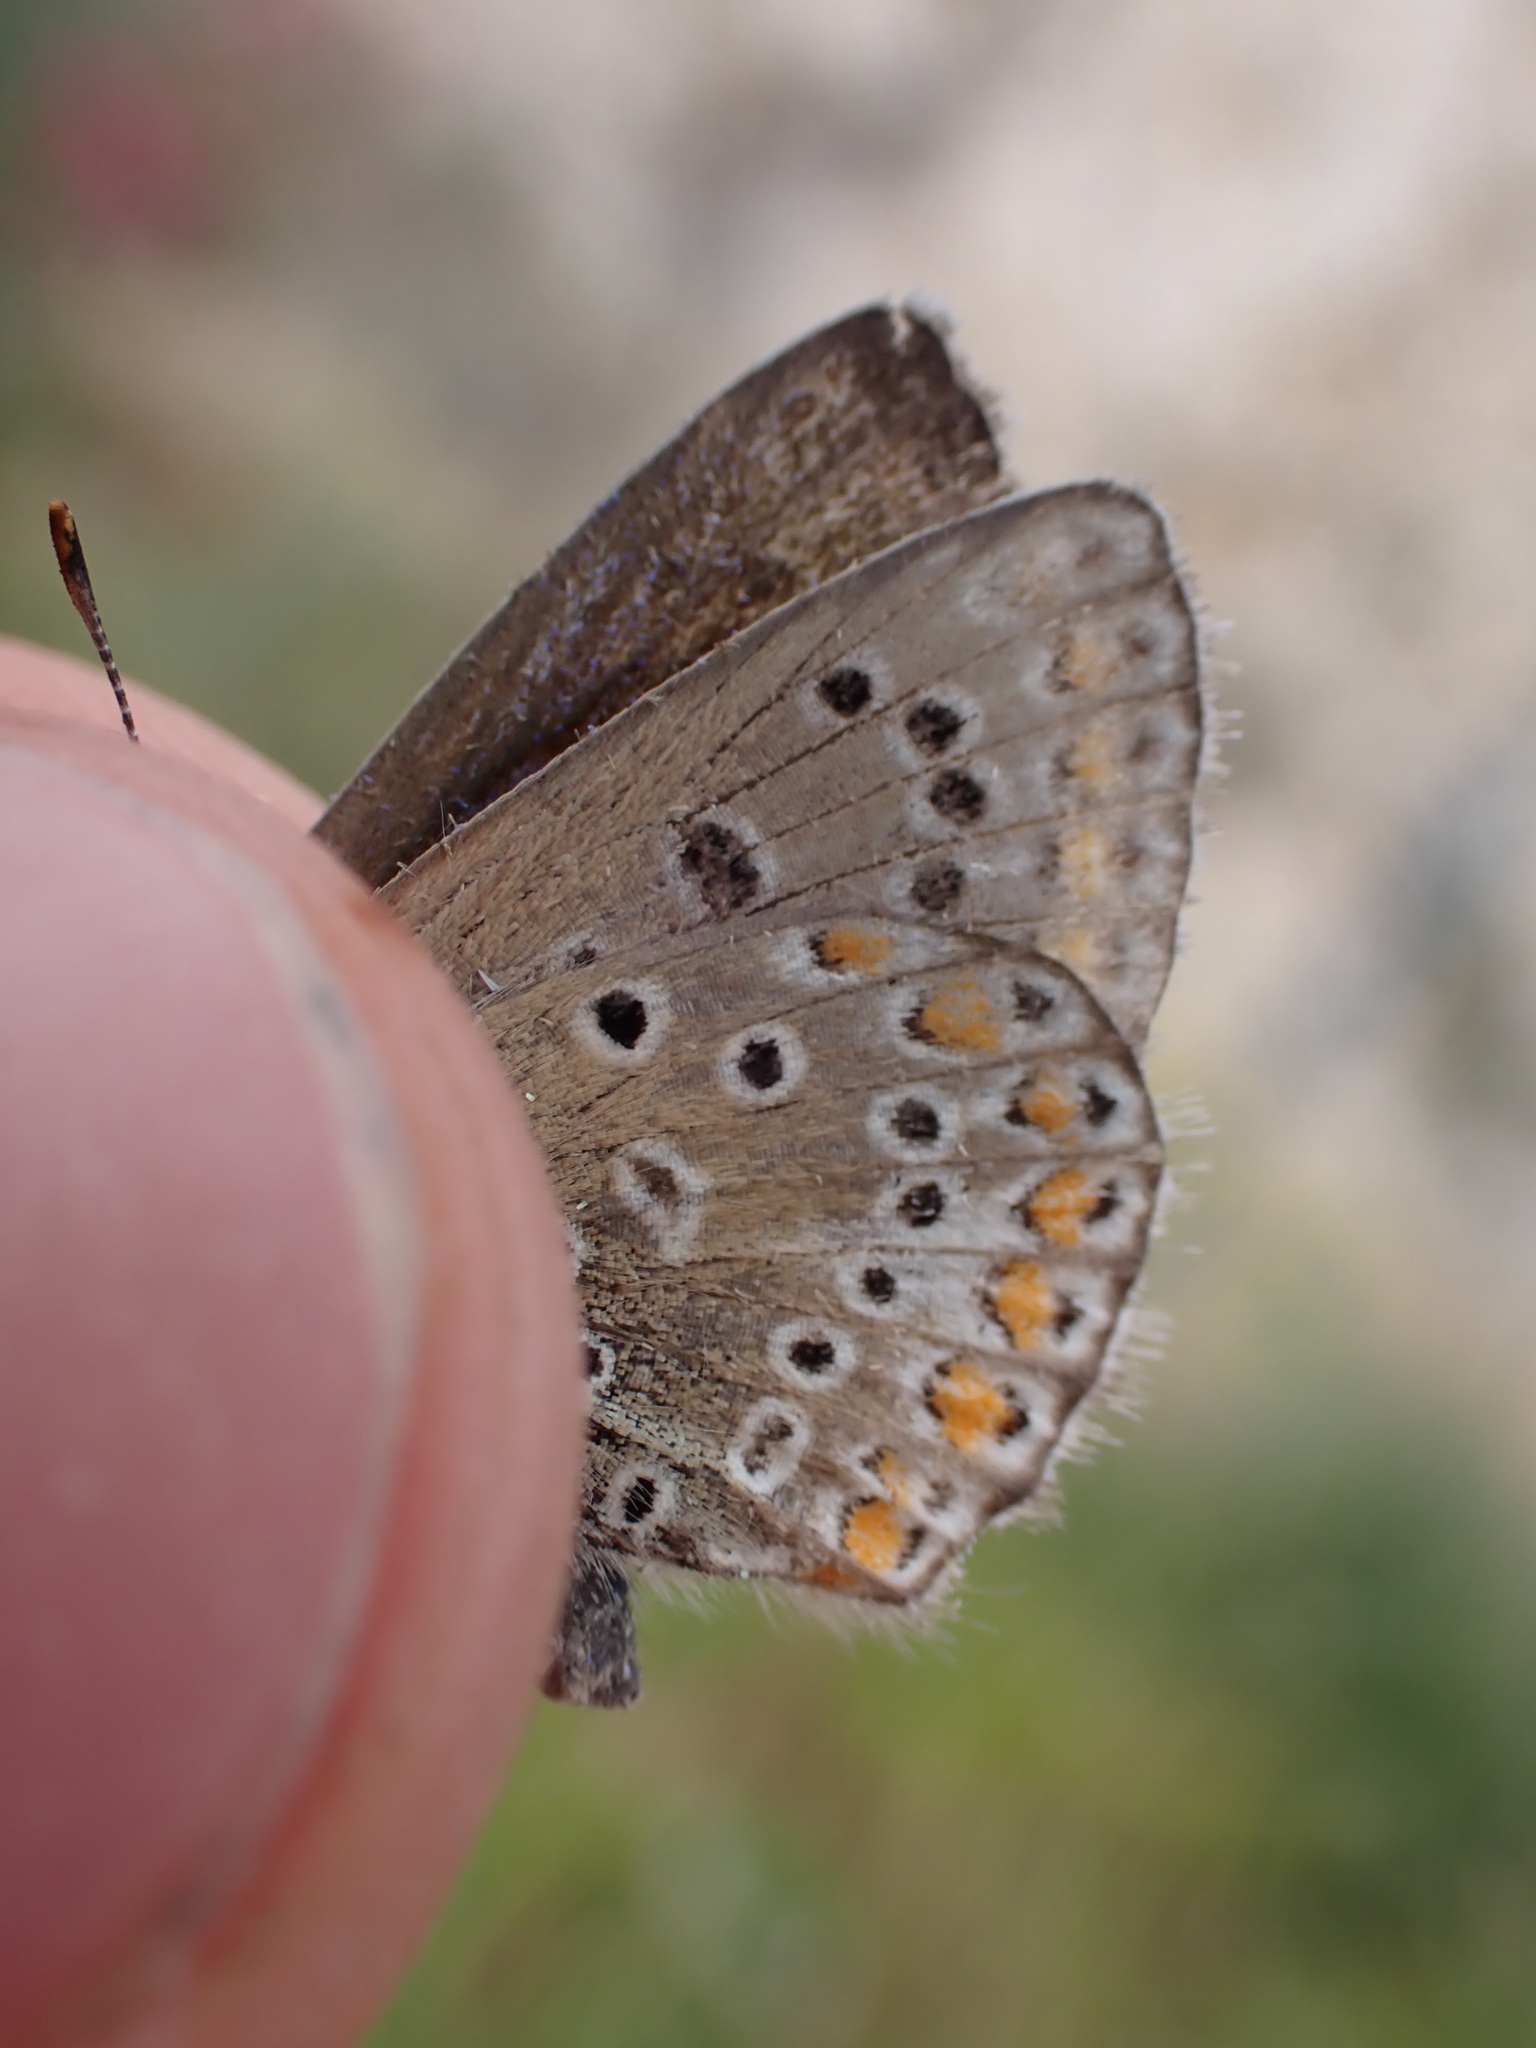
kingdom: Animalia
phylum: Arthropoda
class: Insecta
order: Lepidoptera
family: Lycaenidae
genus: Polyommatus
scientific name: Polyommatus icarus
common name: Common blue
